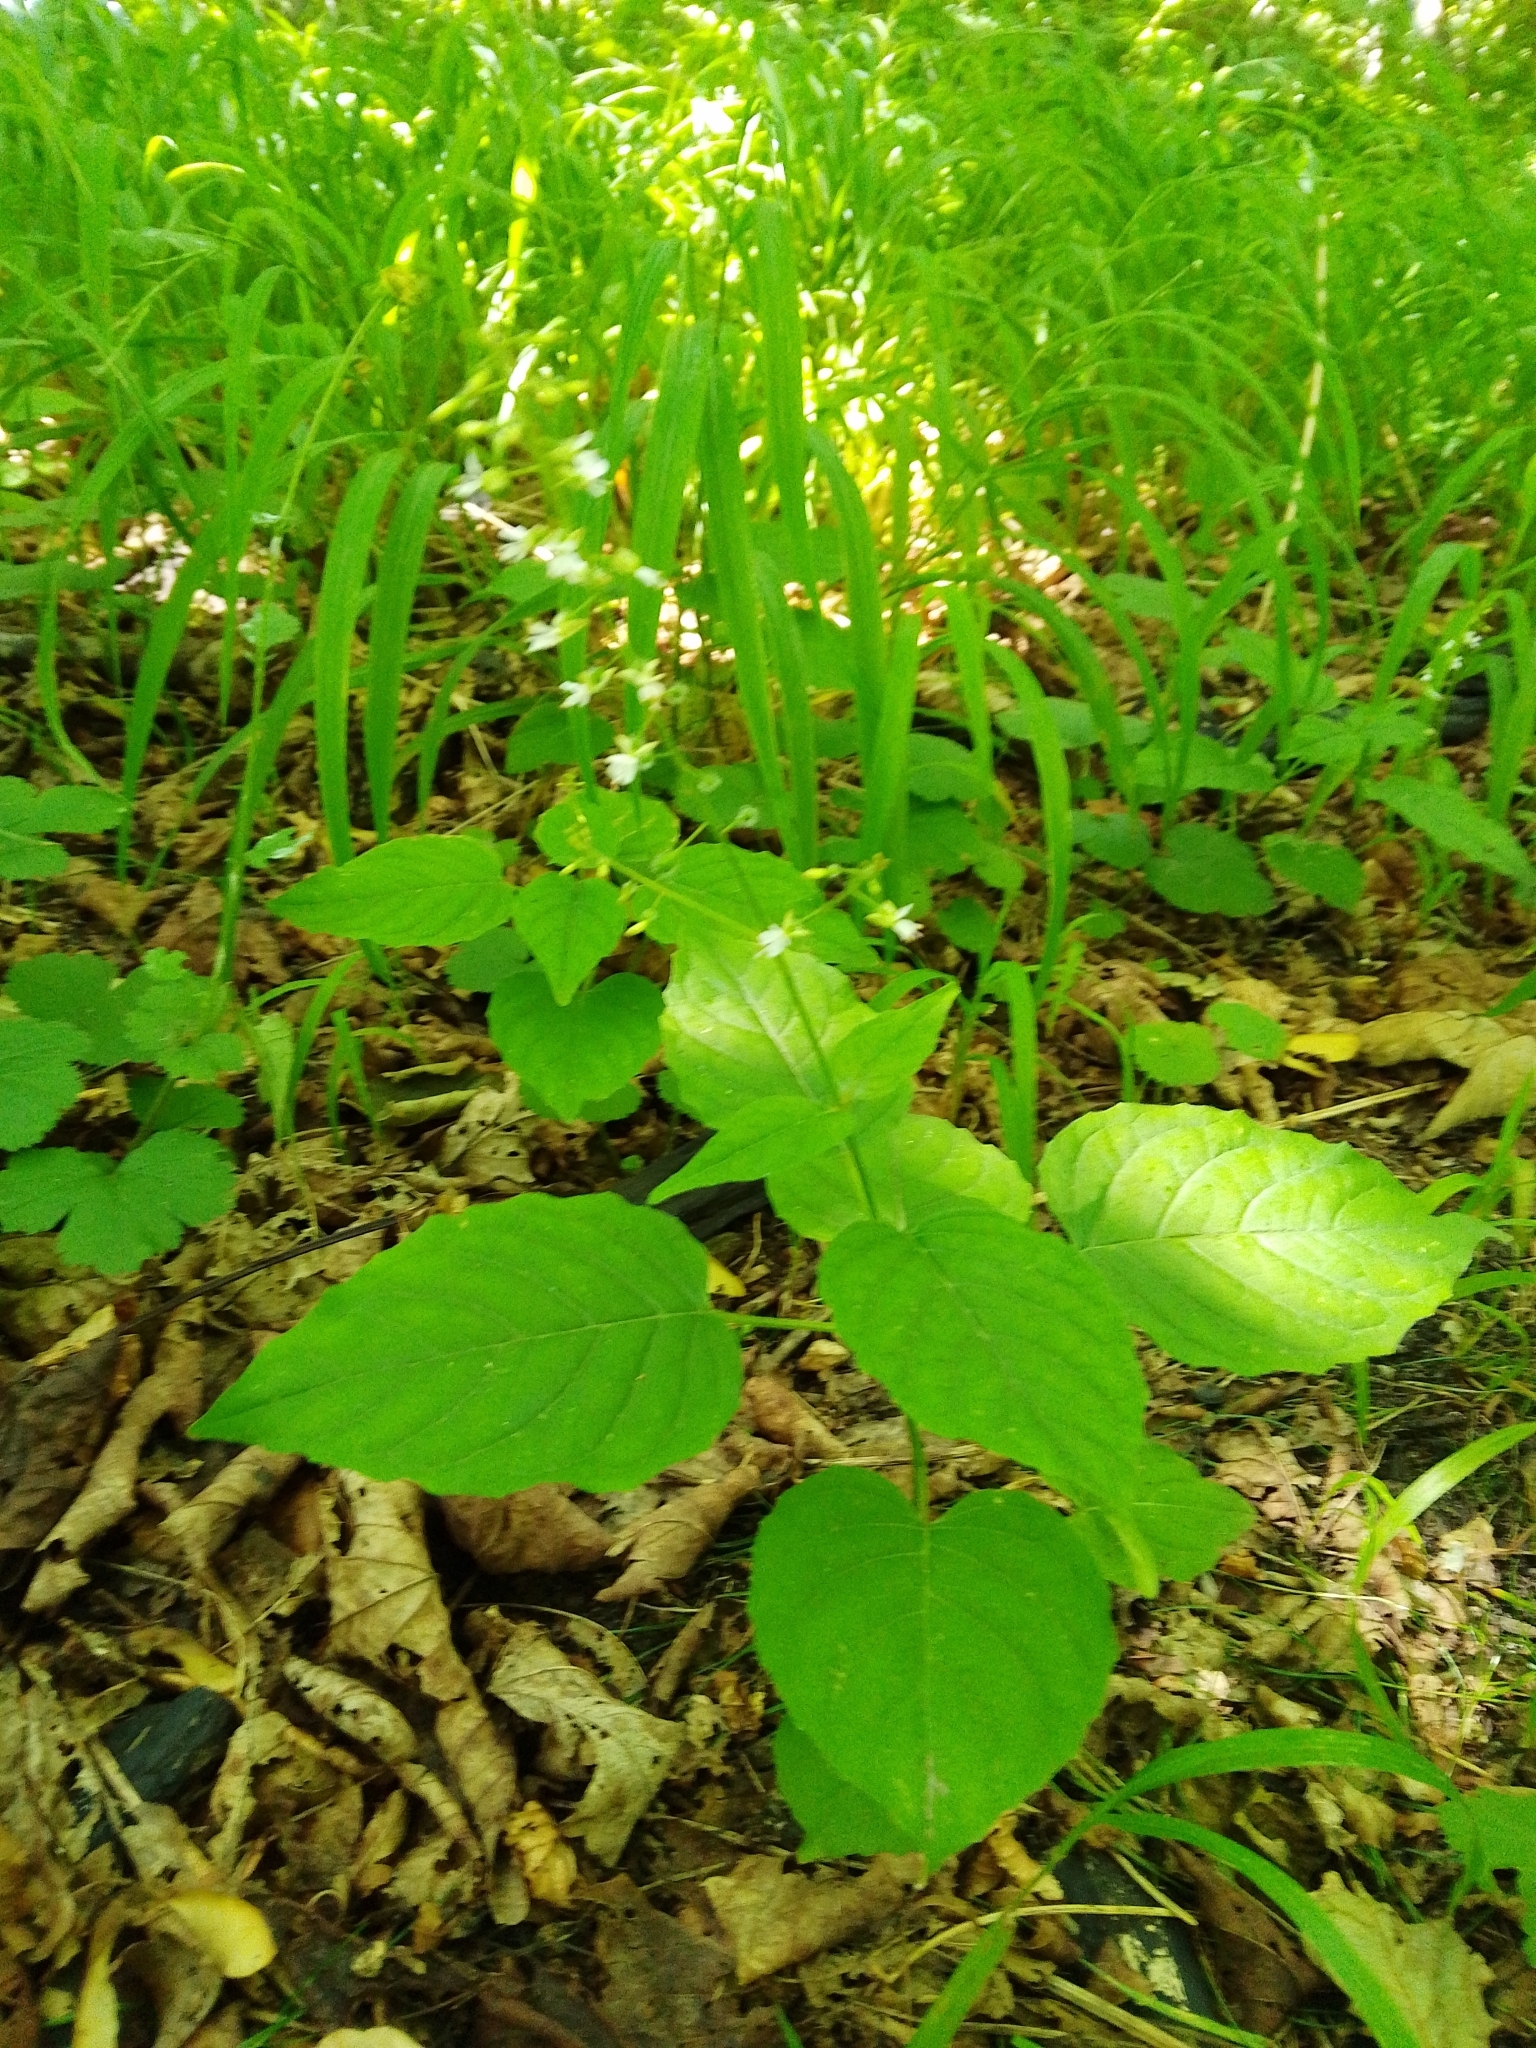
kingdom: Plantae
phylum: Tracheophyta
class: Magnoliopsida
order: Myrtales
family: Onagraceae
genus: Circaea
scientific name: Circaea lutetiana
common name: Enchanter's-nightshade
